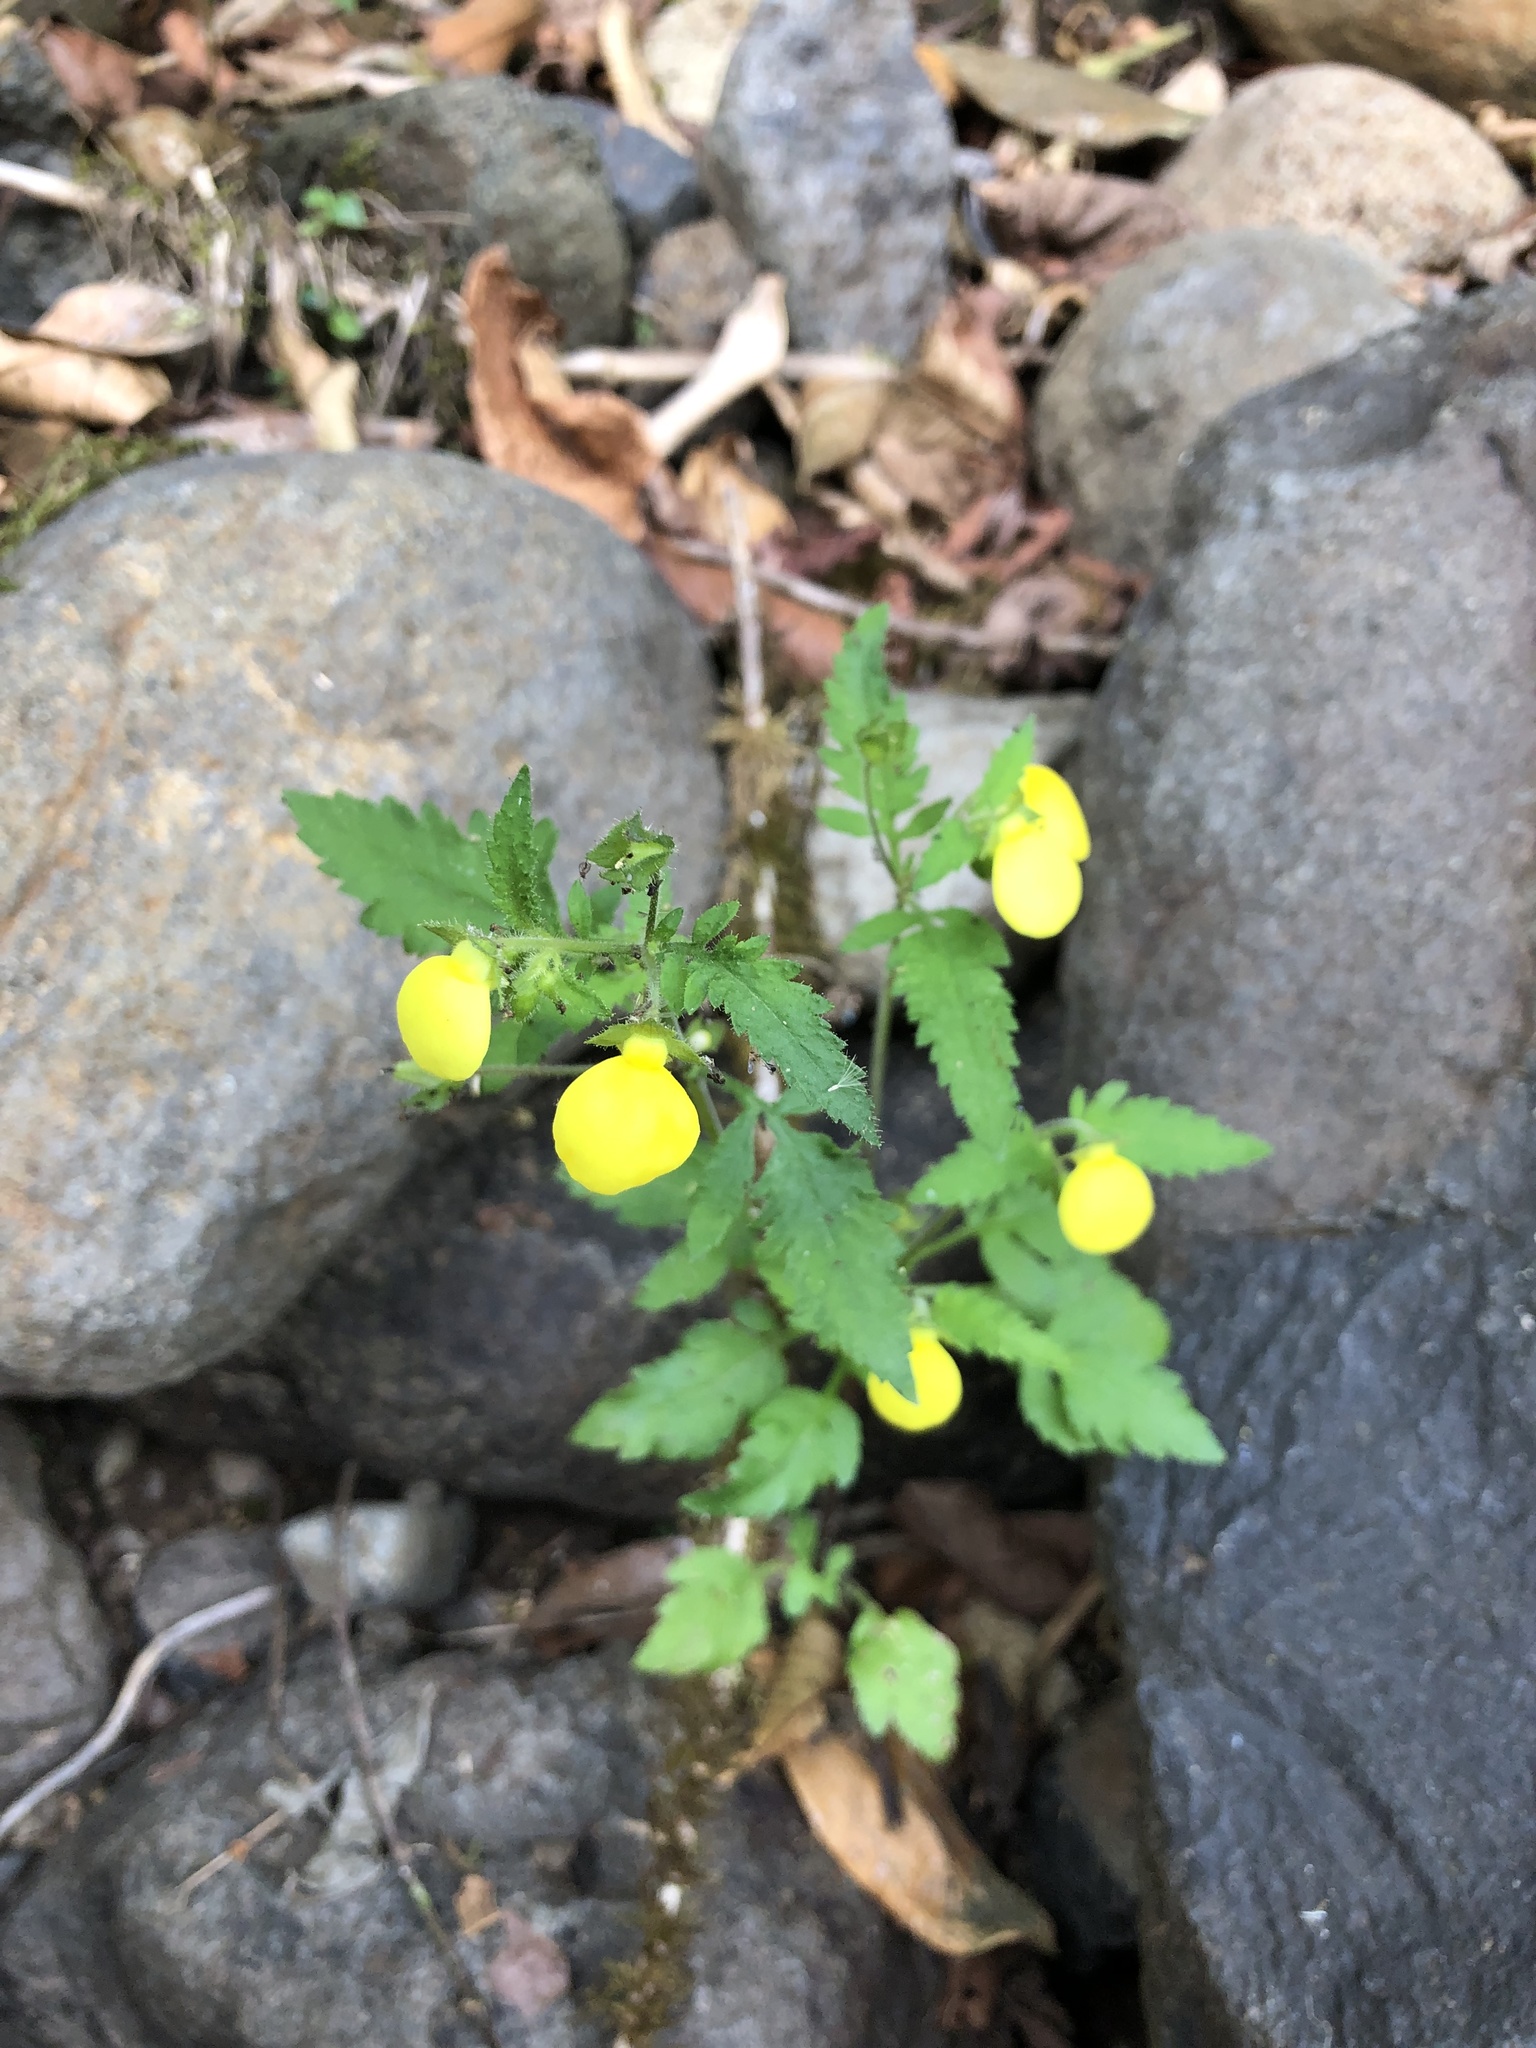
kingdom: Plantae
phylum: Tracheophyta
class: Magnoliopsida
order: Lamiales
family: Calceolariaceae
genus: Calceolaria
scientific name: Calceolaria tripartita
